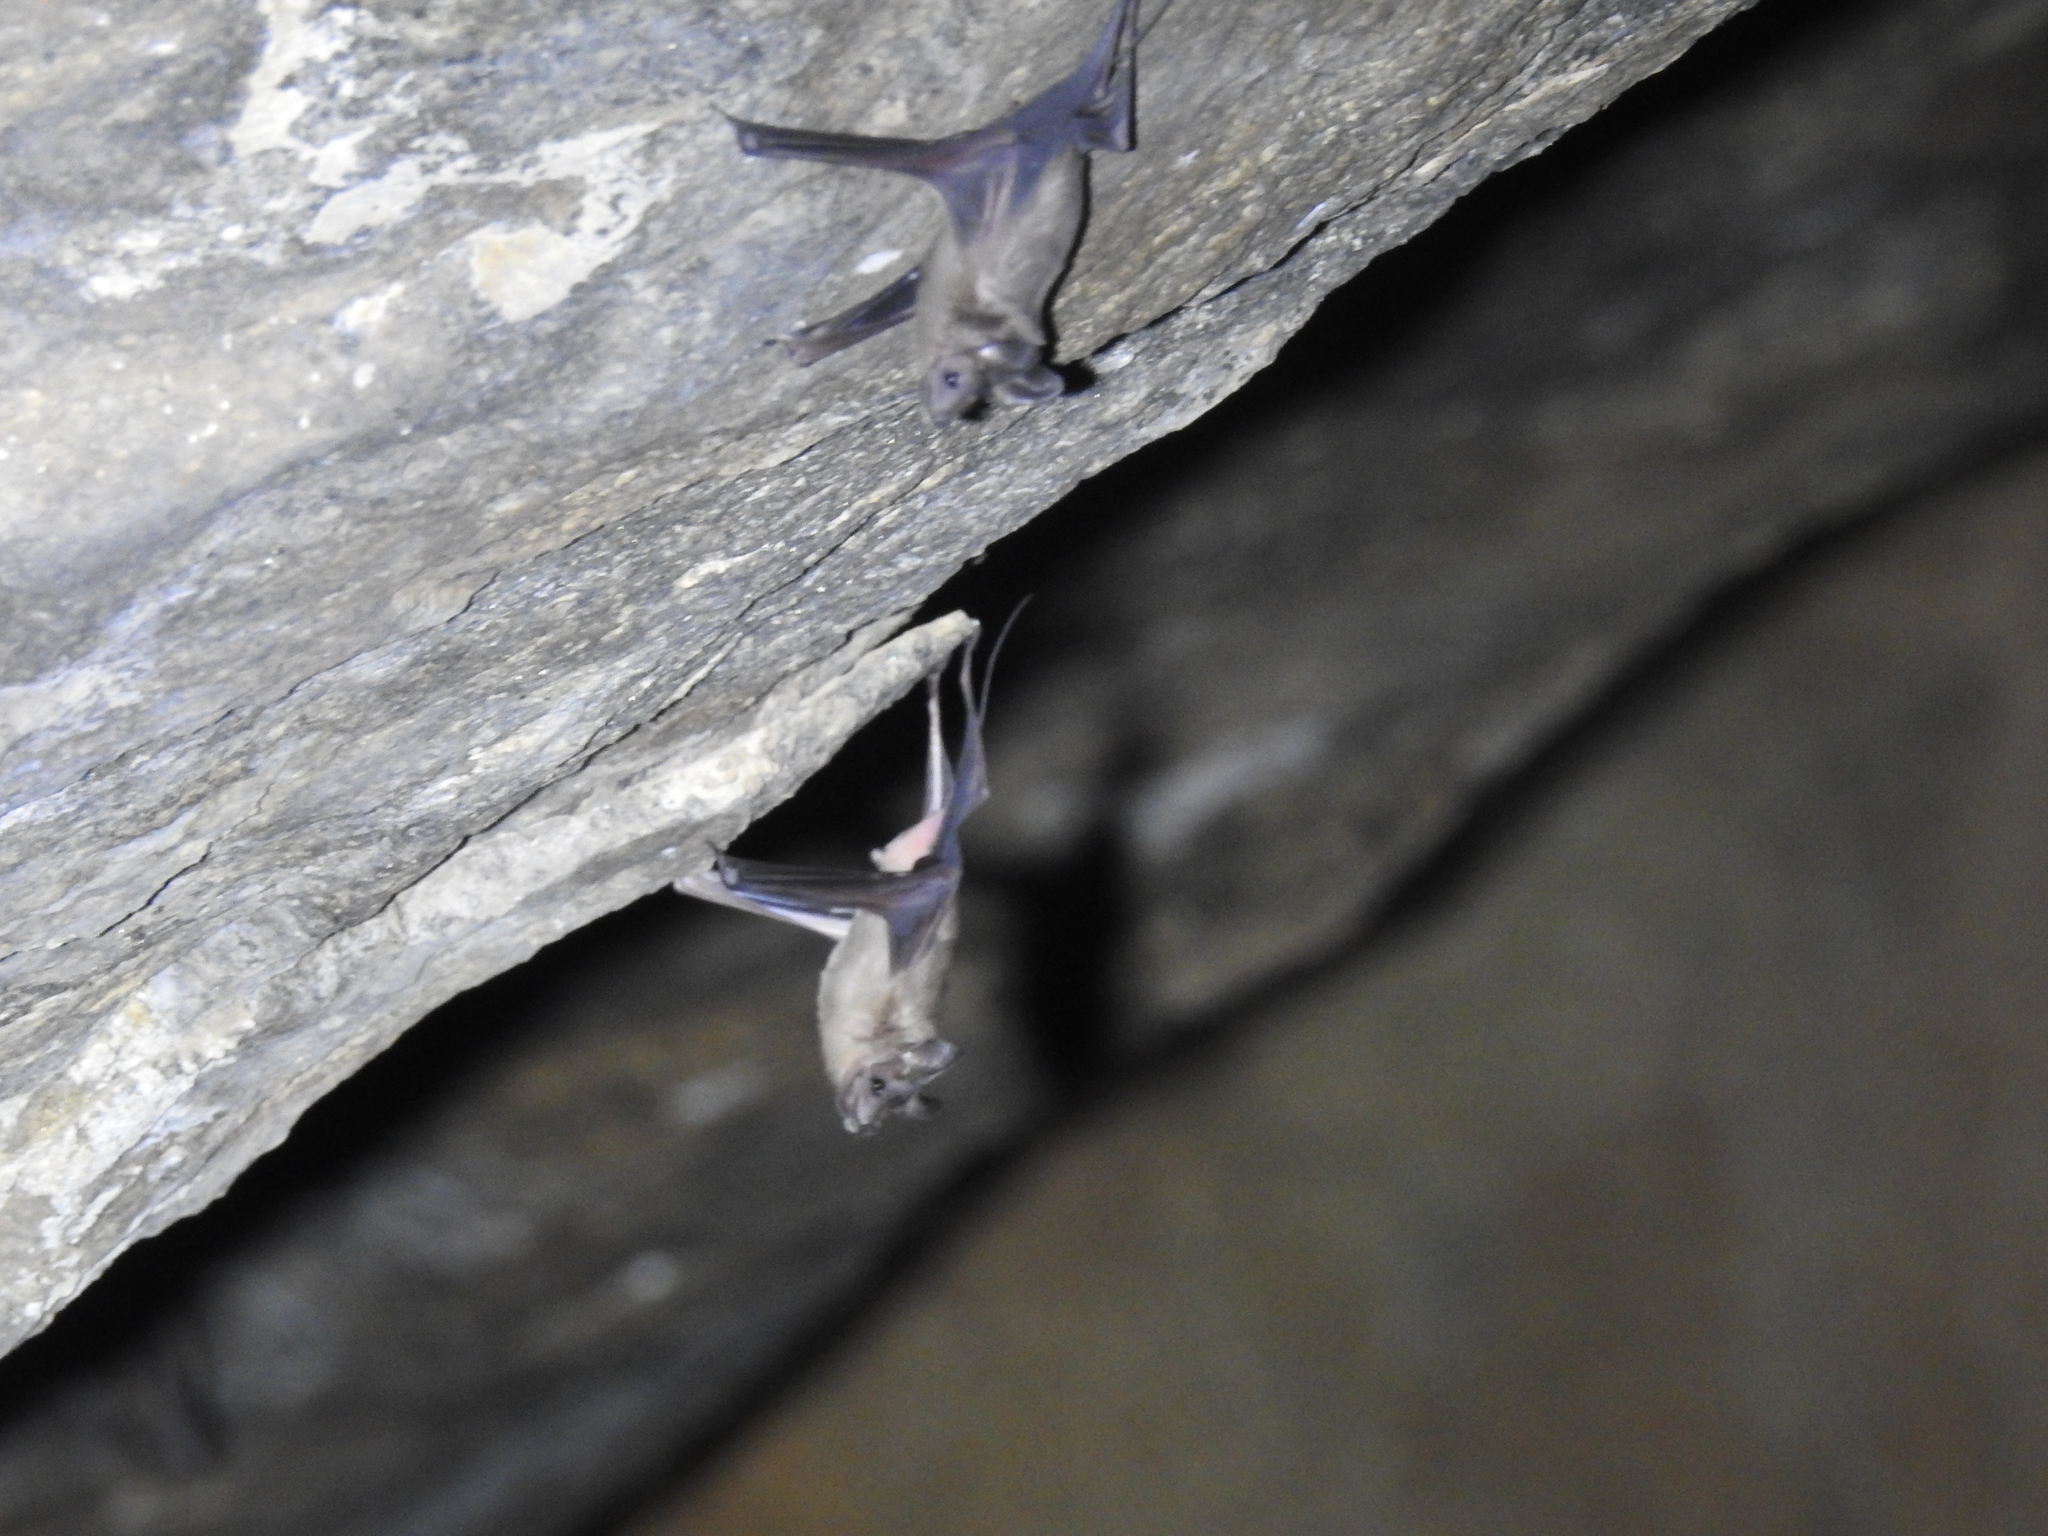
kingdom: Animalia
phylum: Chordata
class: Mammalia
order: Chiroptera
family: Rhinopomatidae
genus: Rhinopoma
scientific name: Rhinopoma hardwickii
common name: Lesser mouse-tailed bat
